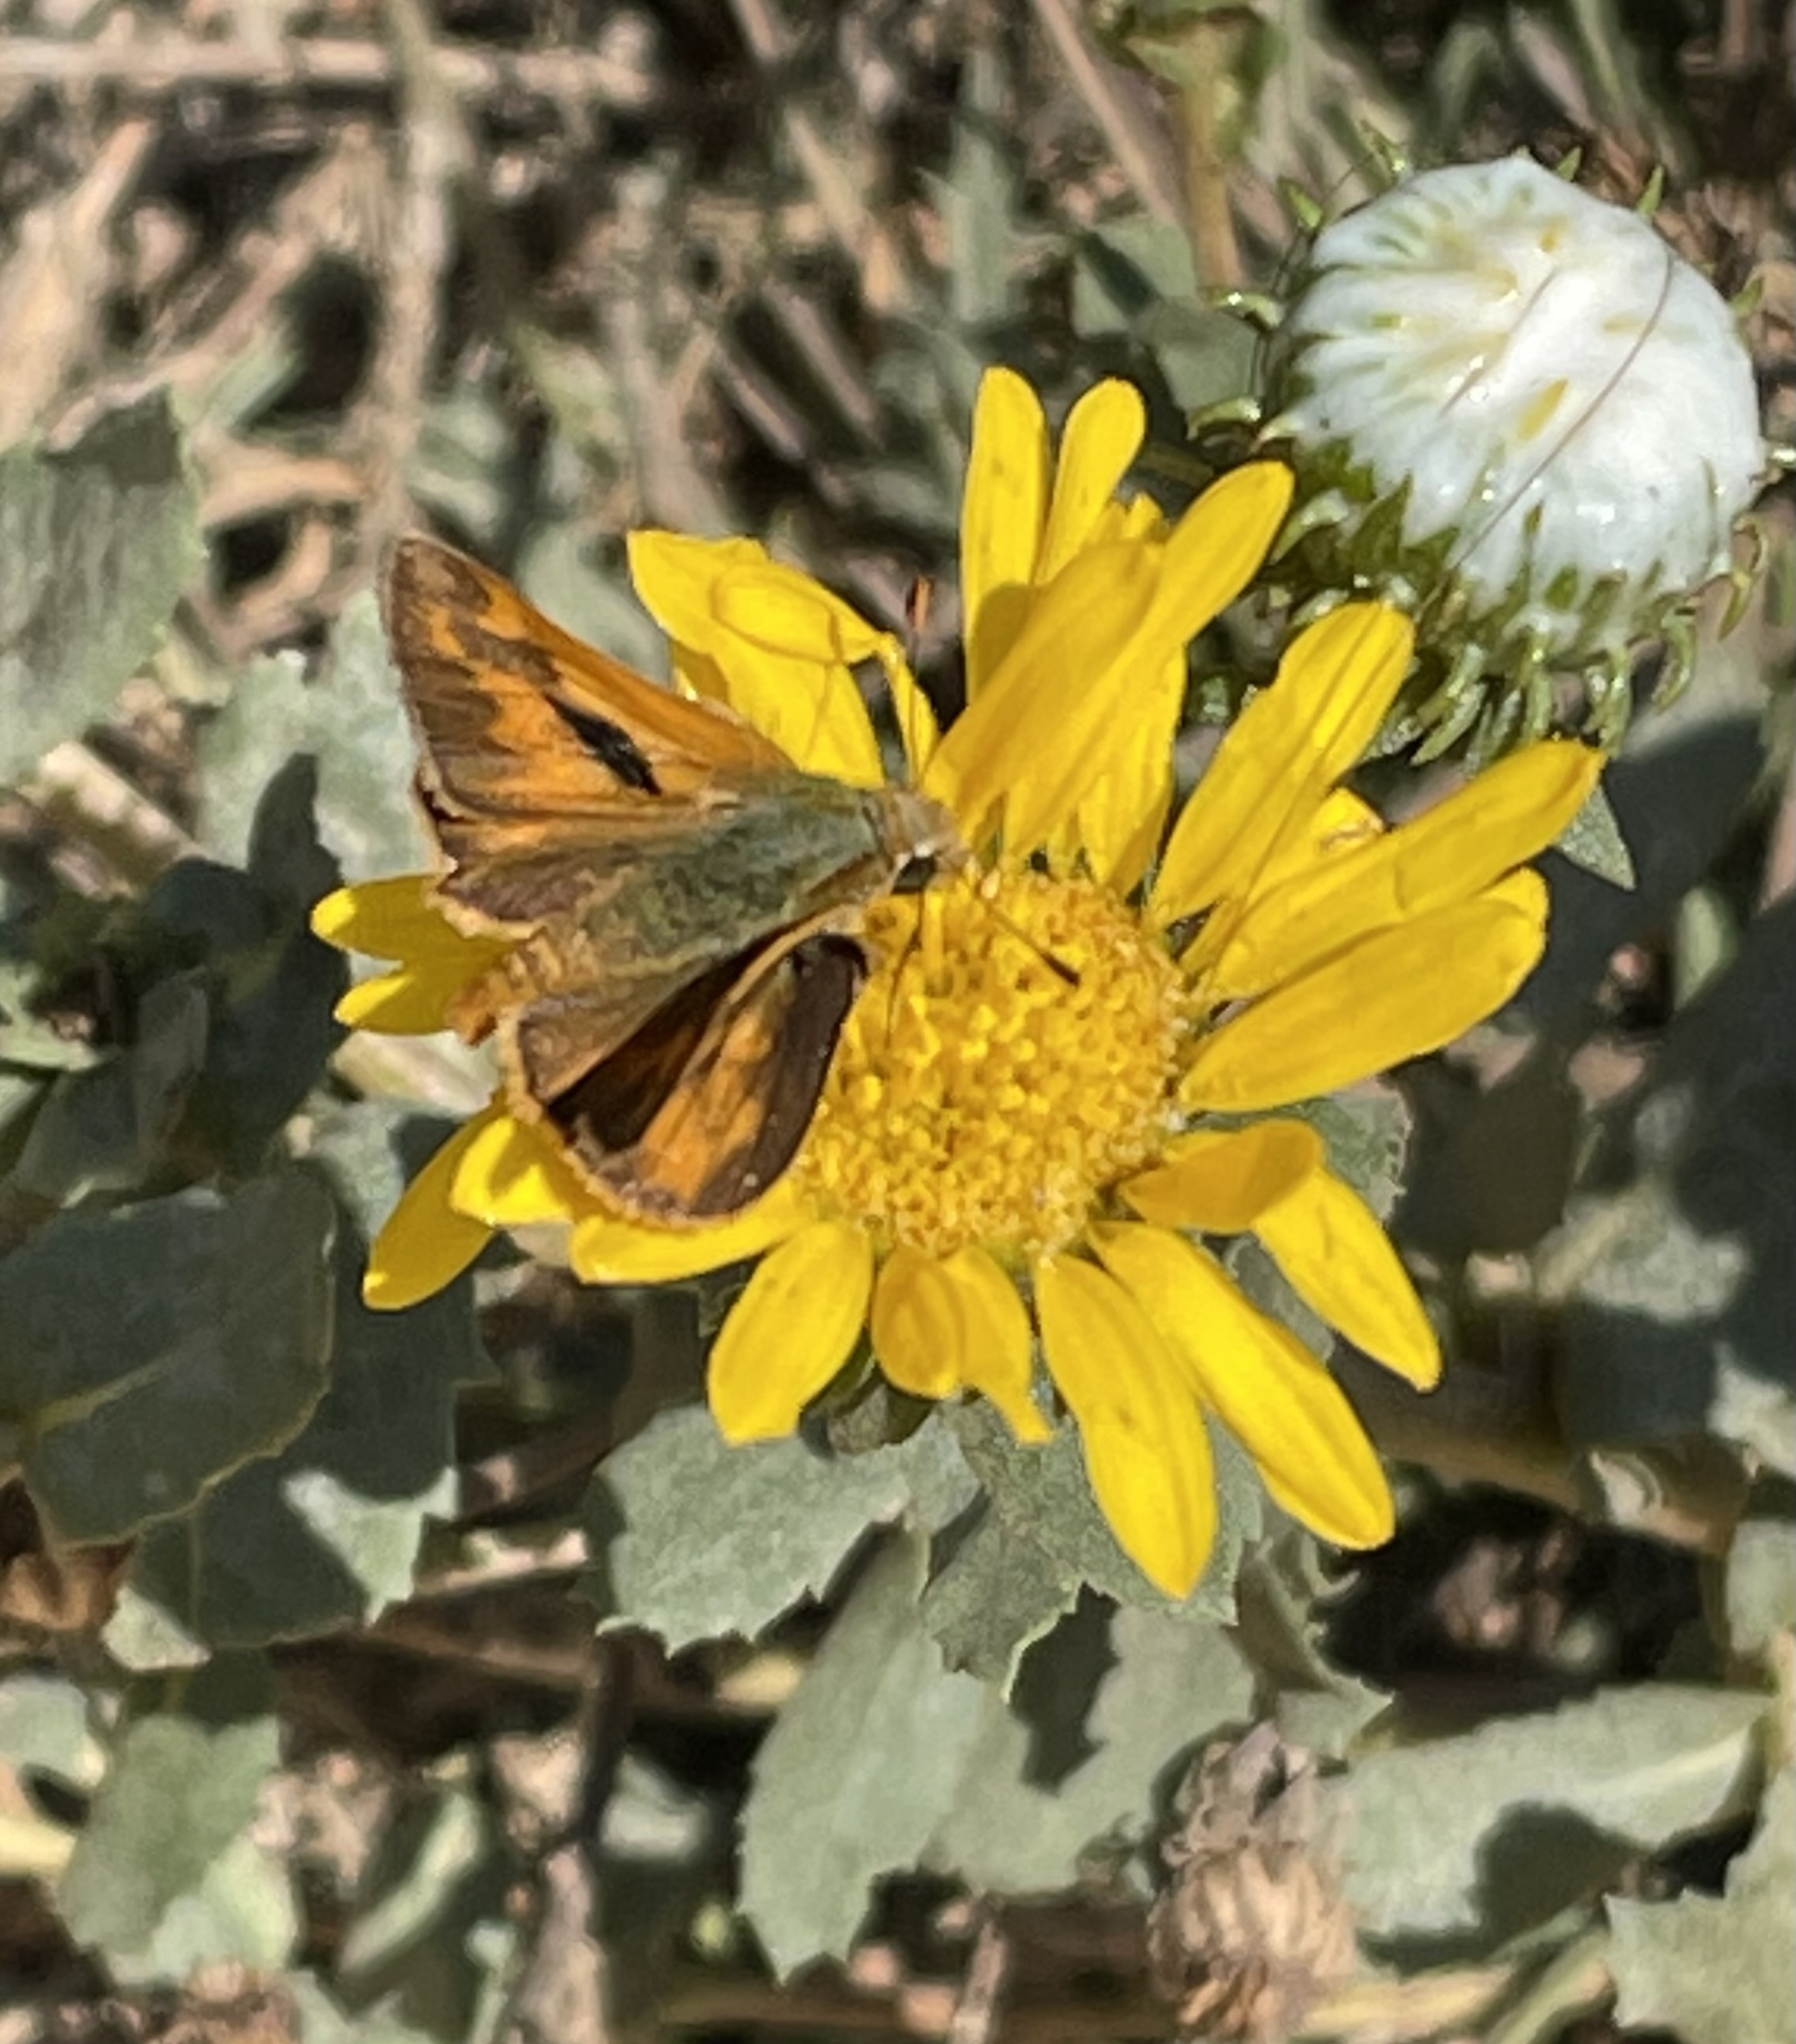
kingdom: Plantae
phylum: Tracheophyta
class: Magnoliopsida
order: Asterales
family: Asteraceae
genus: Grindelia
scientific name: Grindelia hirsutula
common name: Hairy gumweed
